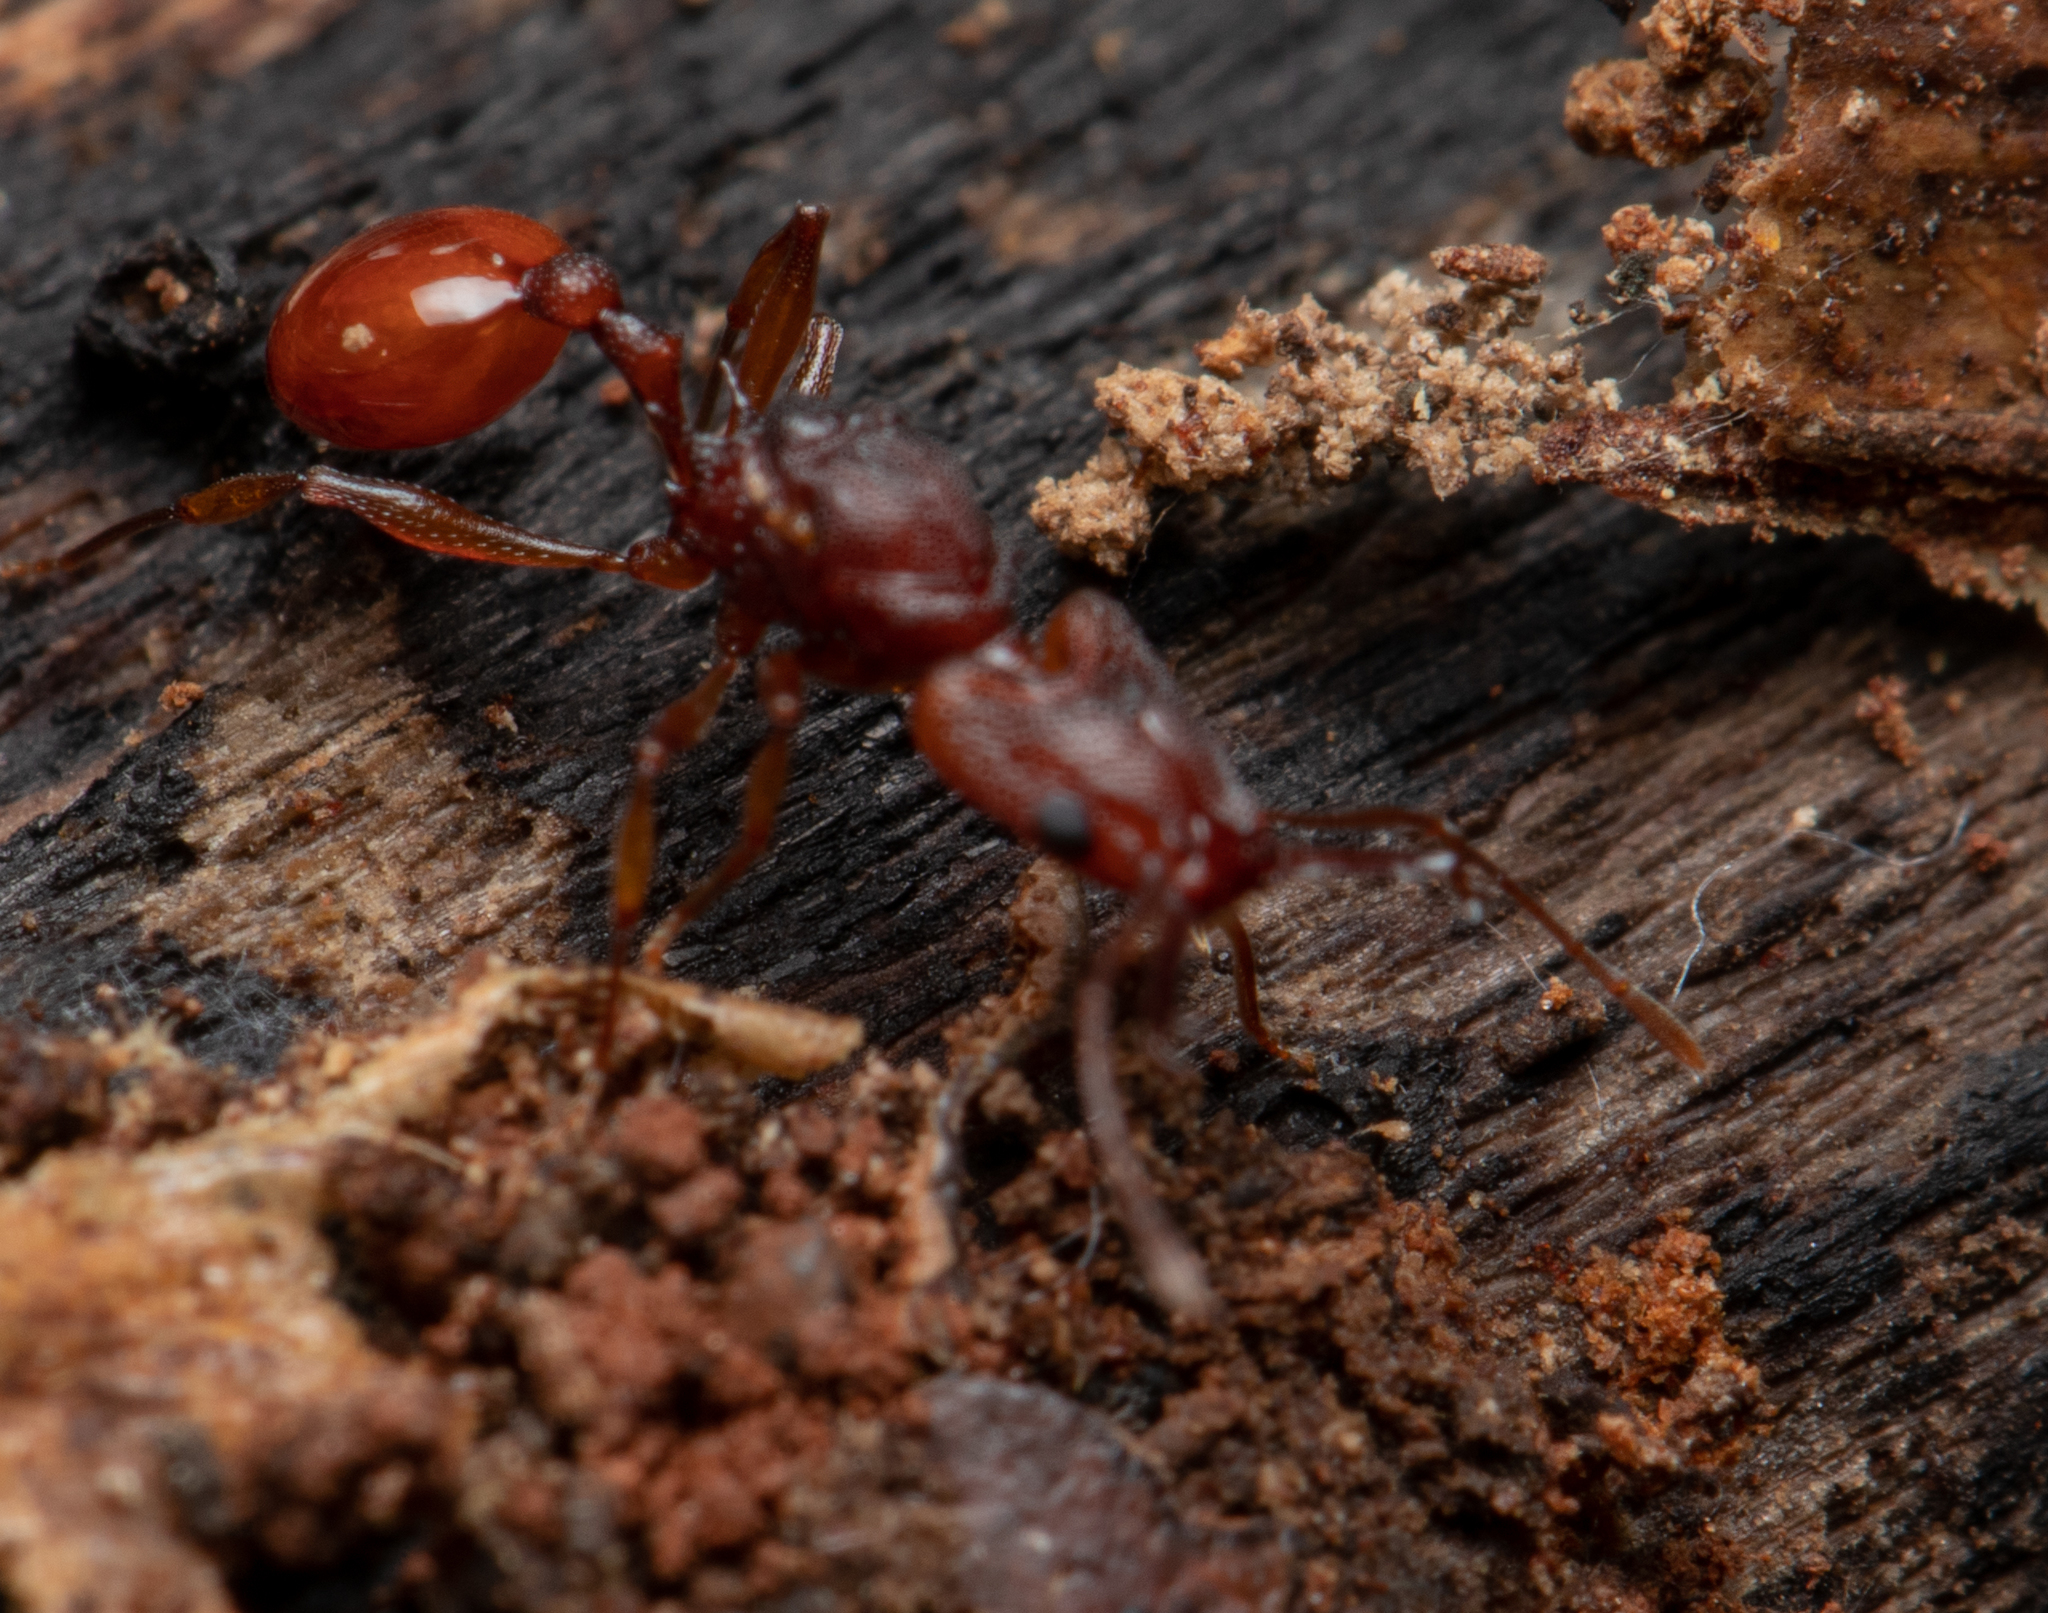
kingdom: Animalia
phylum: Arthropoda
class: Insecta
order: Hymenoptera
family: Formicidae
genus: Orectognathus
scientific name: Orectognathus antennatus
